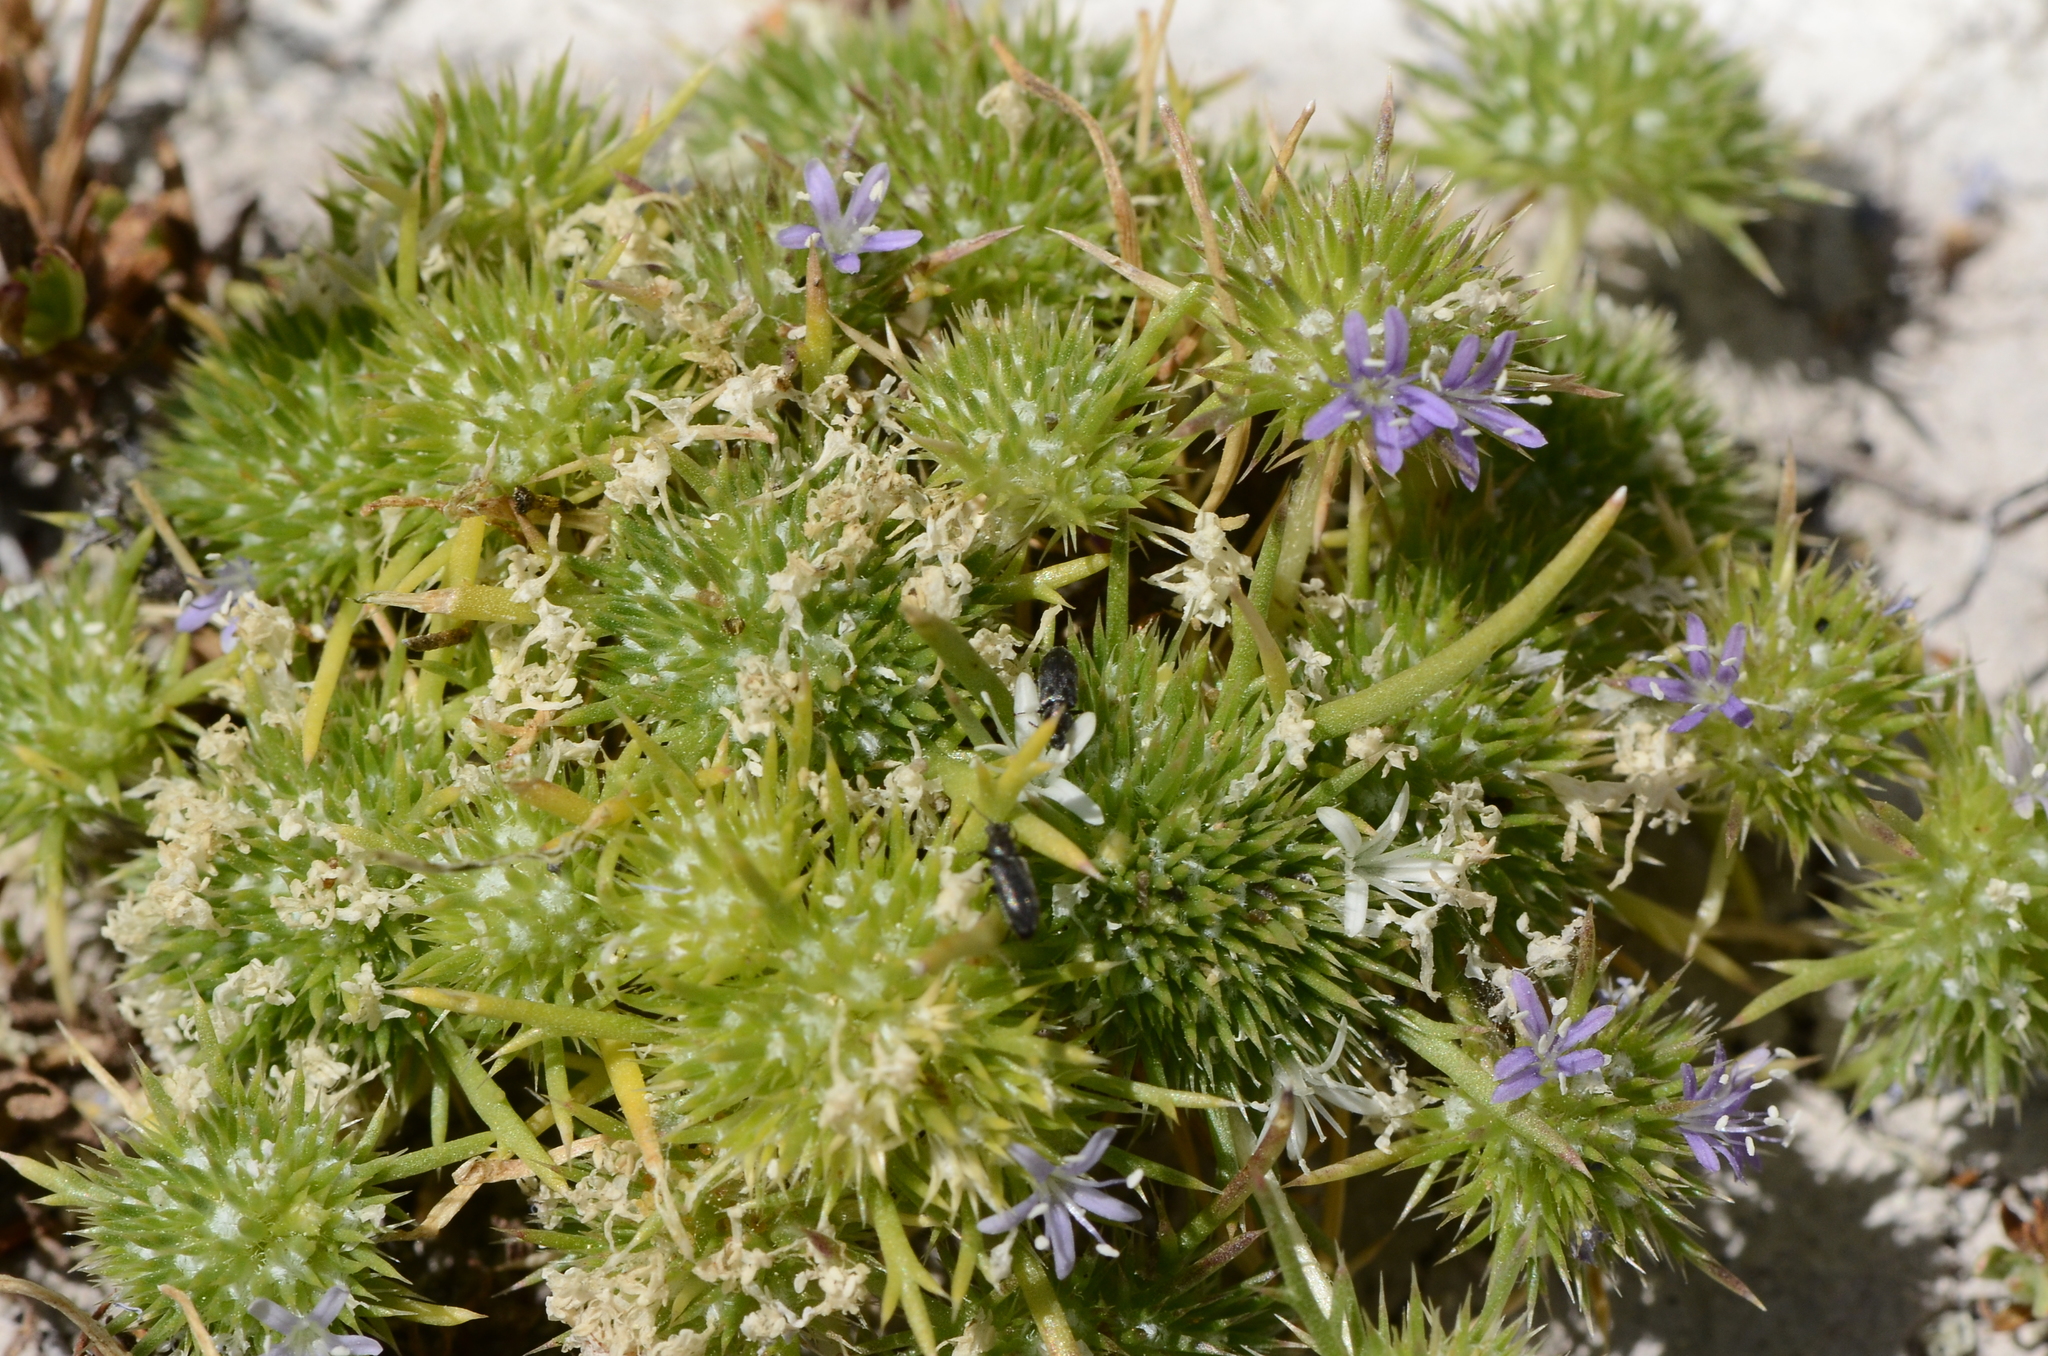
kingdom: Plantae
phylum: Tracheophyta
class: Magnoliopsida
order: Ericales
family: Polemoniaceae
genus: Navarretia
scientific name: Navarretia leucocephala
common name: White-flowered navarretia
